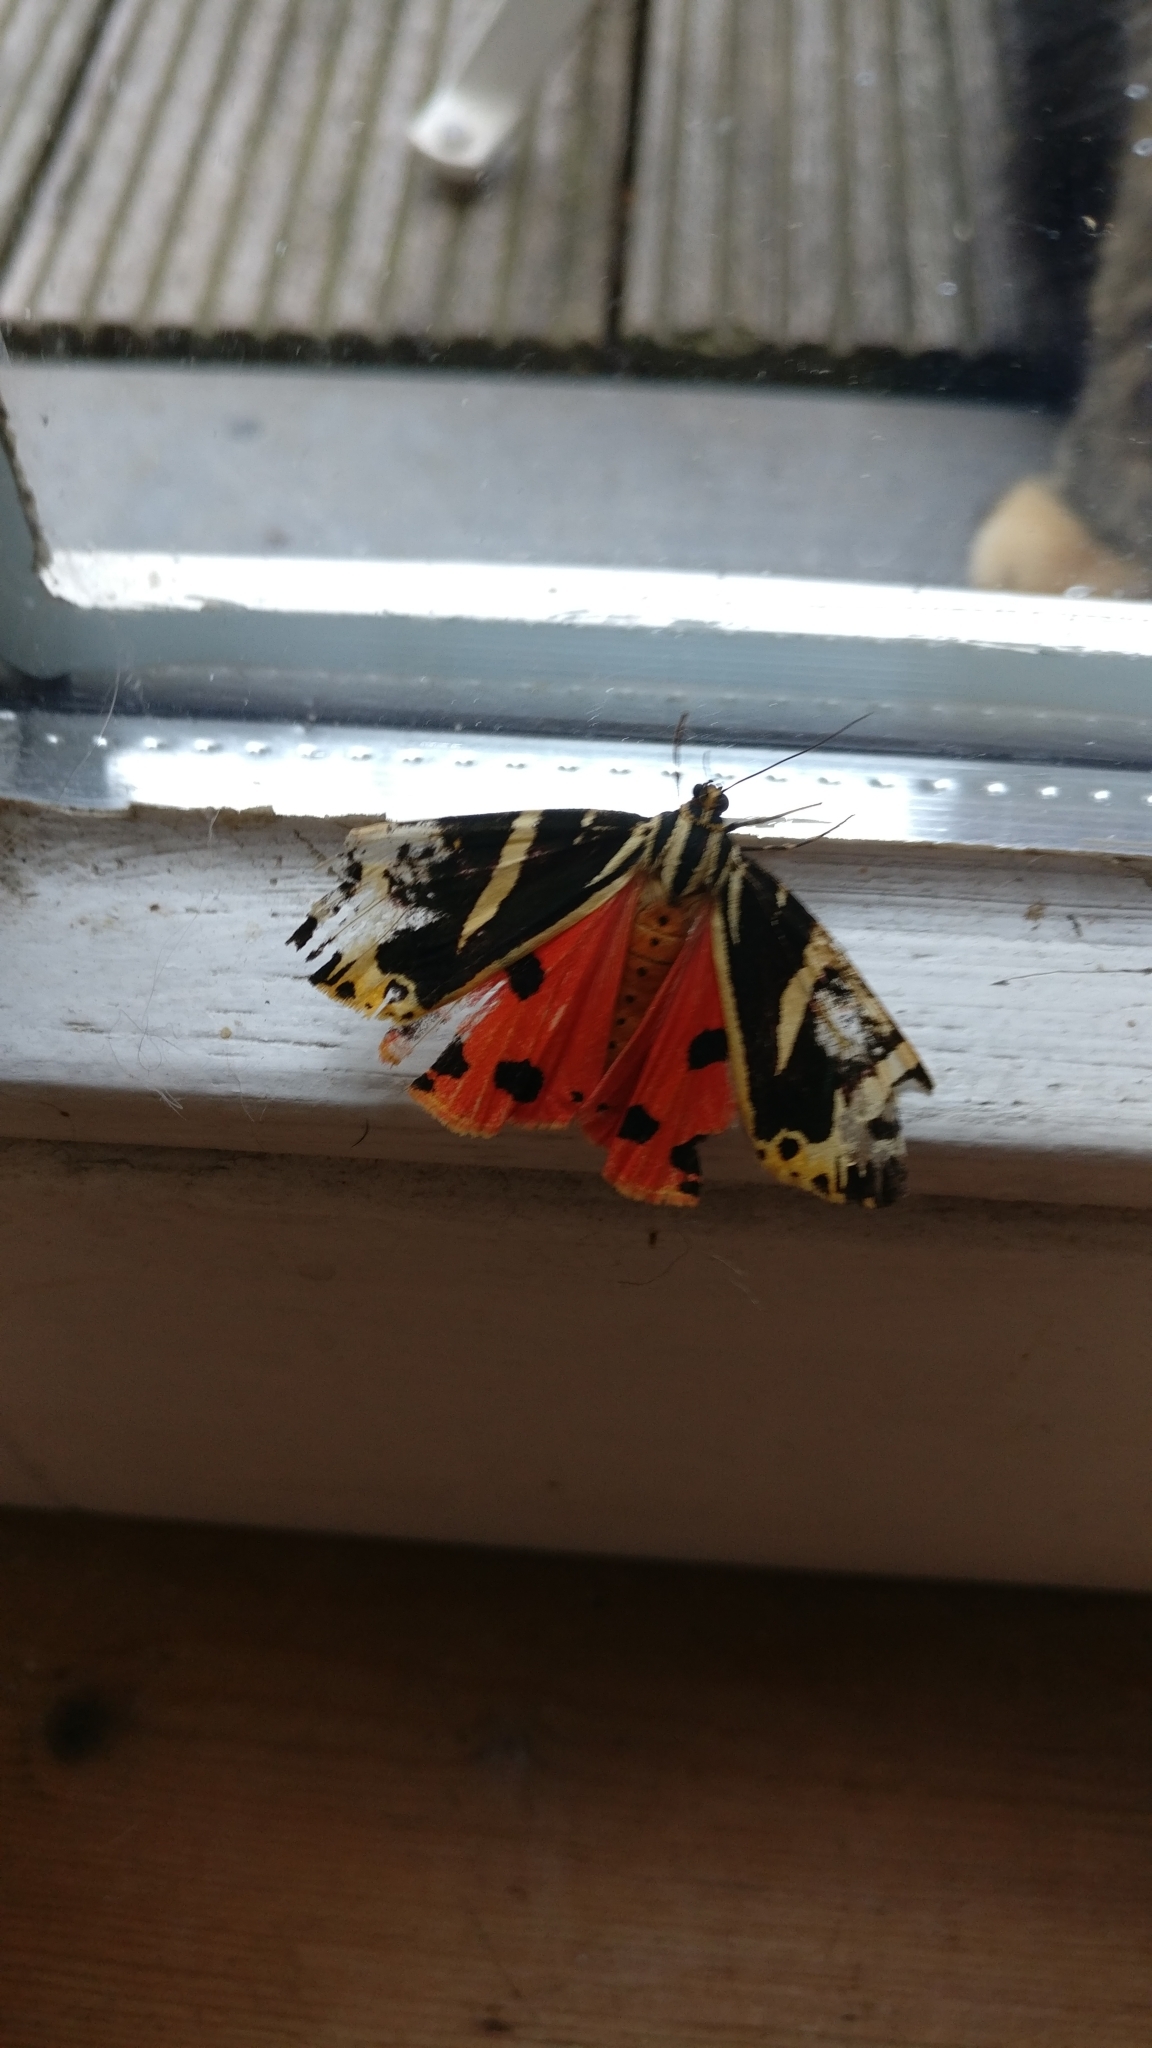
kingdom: Animalia
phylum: Arthropoda
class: Insecta
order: Lepidoptera
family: Erebidae
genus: Euplagia
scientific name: Euplagia quadripunctaria
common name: Jersey tiger
